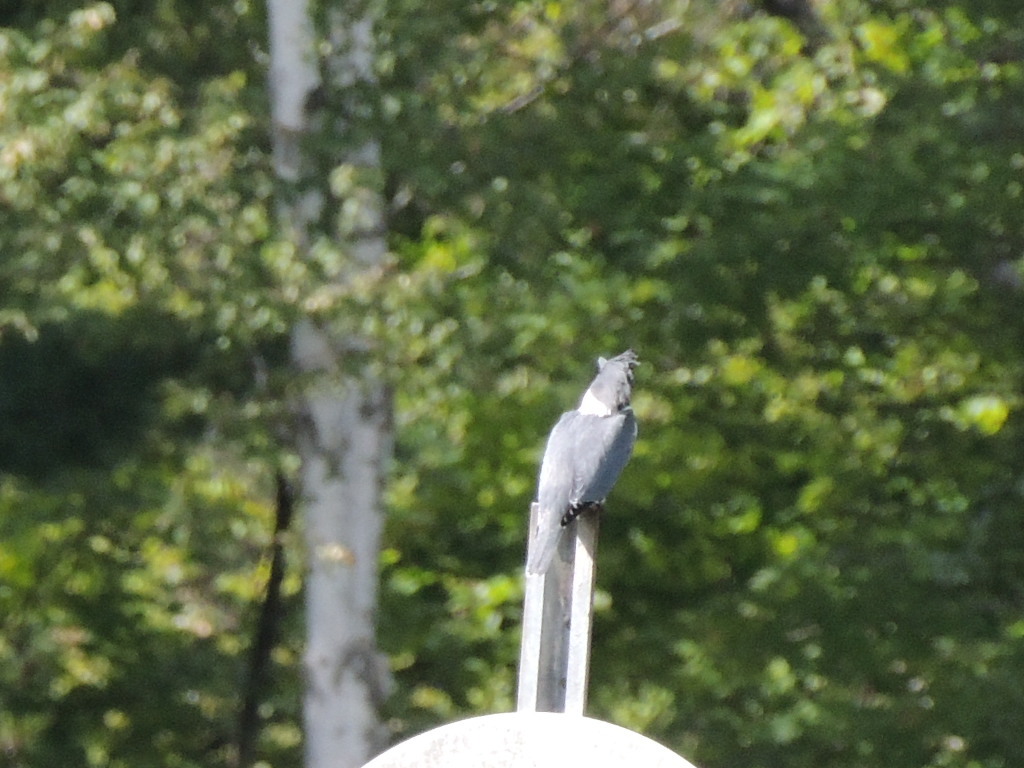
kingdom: Animalia
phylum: Chordata
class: Aves
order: Coraciiformes
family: Alcedinidae
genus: Megaceryle
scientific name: Megaceryle alcyon
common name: Belted kingfisher
